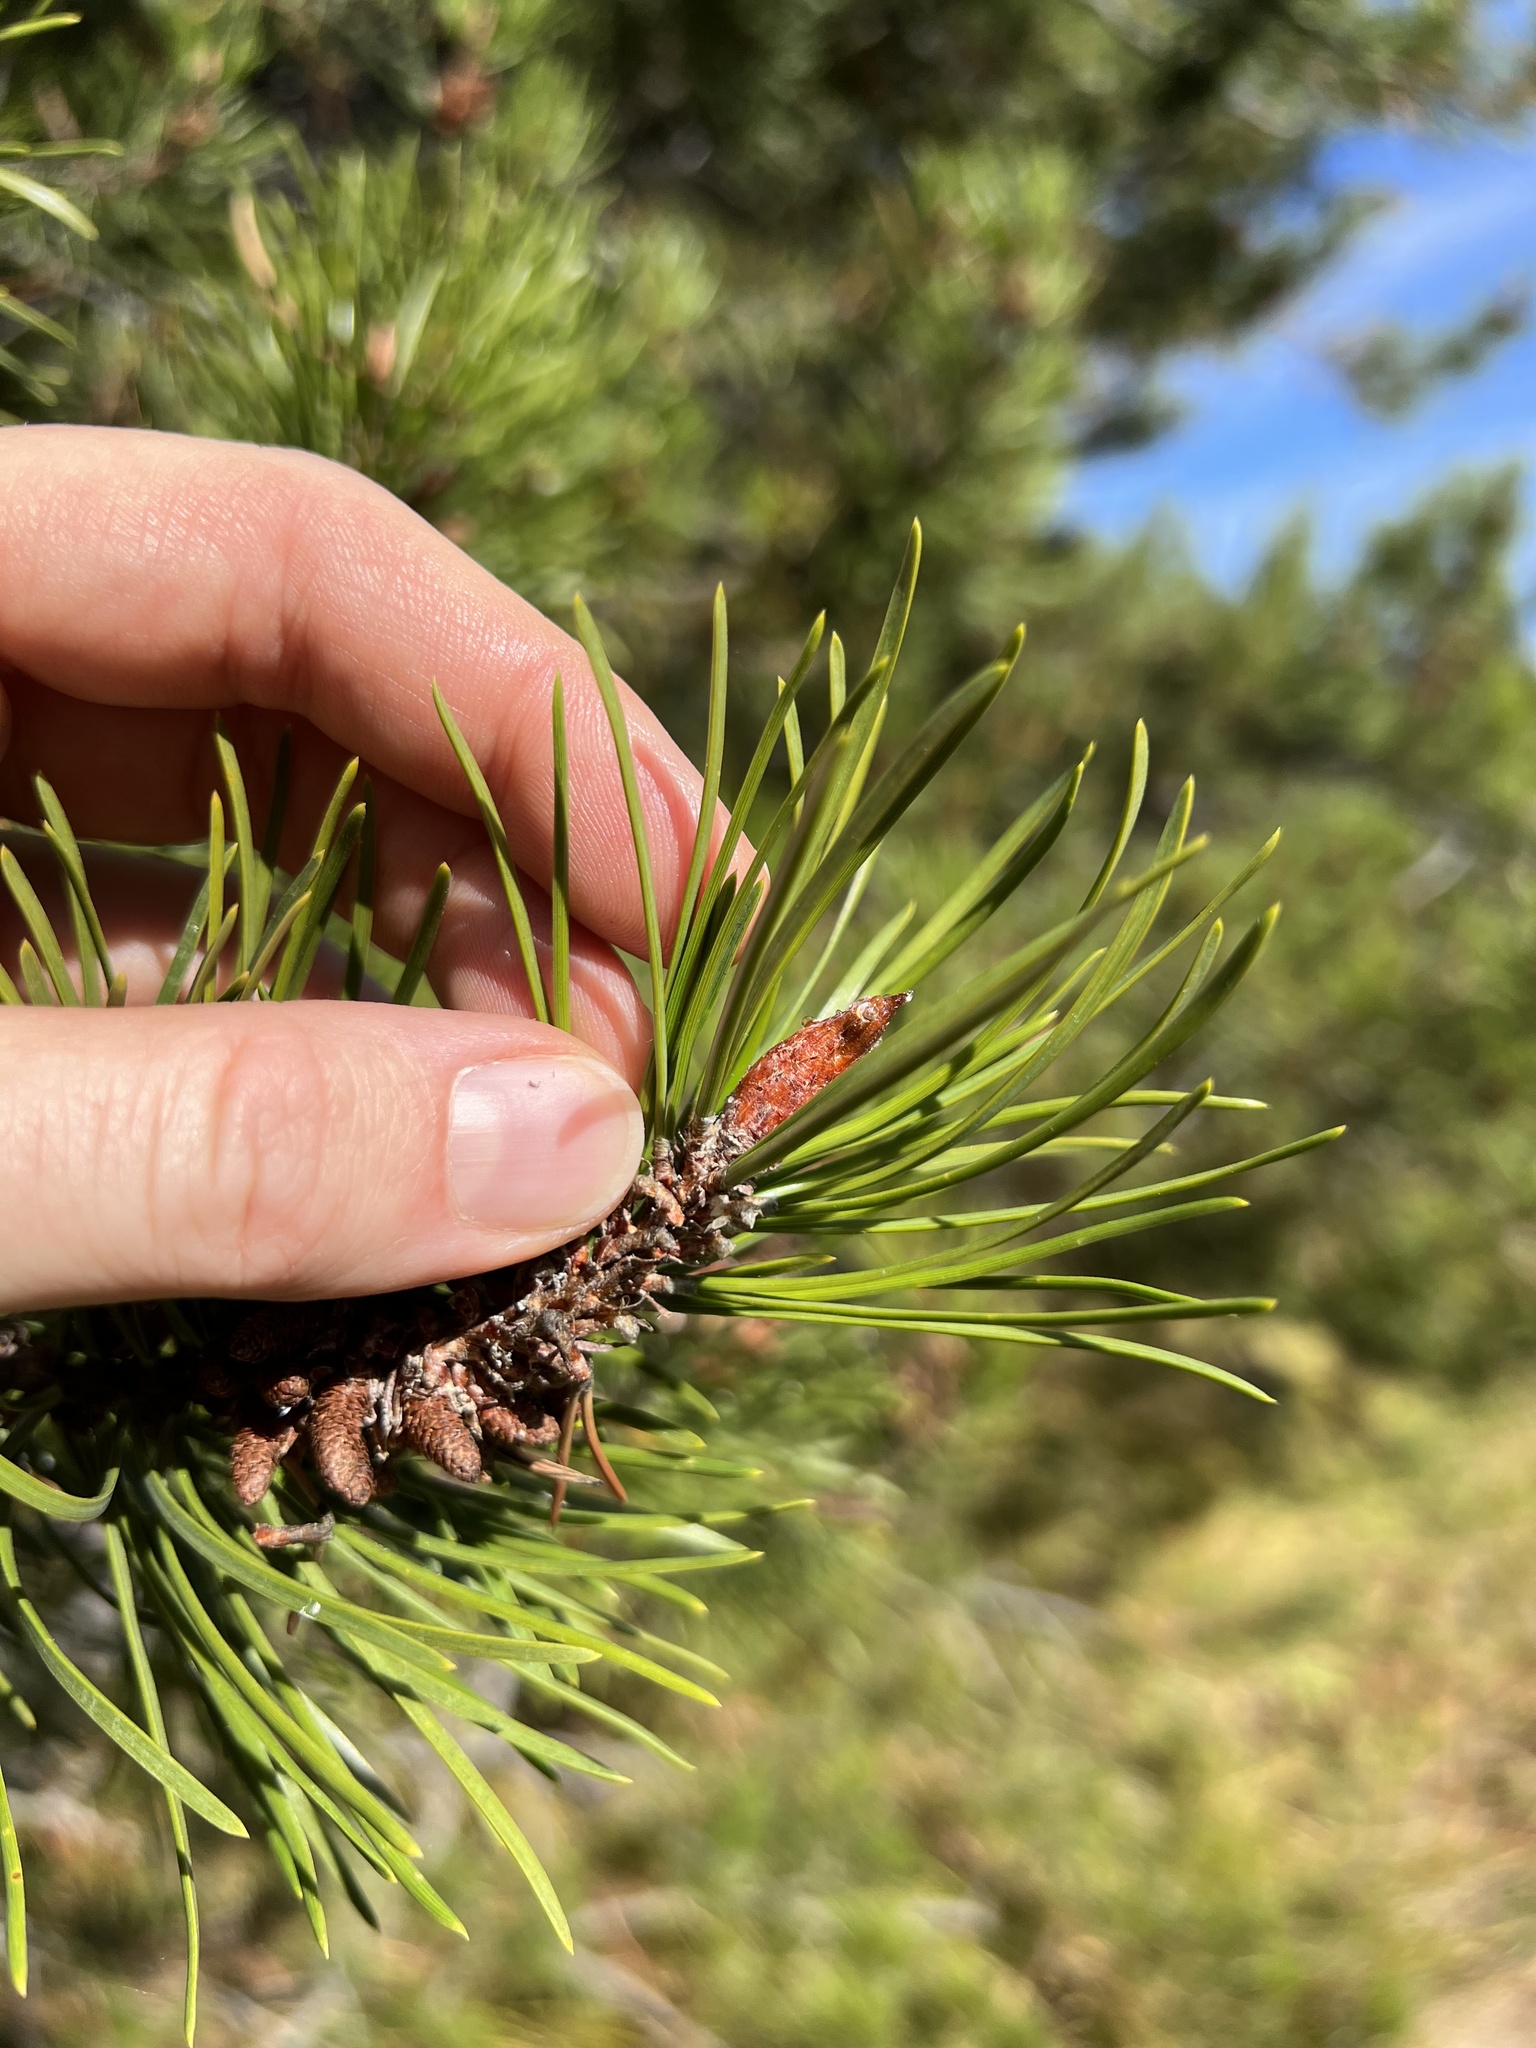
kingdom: Plantae
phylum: Tracheophyta
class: Pinopsida
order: Pinales
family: Pinaceae
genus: Pinus
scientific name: Pinus contorta
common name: Lodgepole pine
